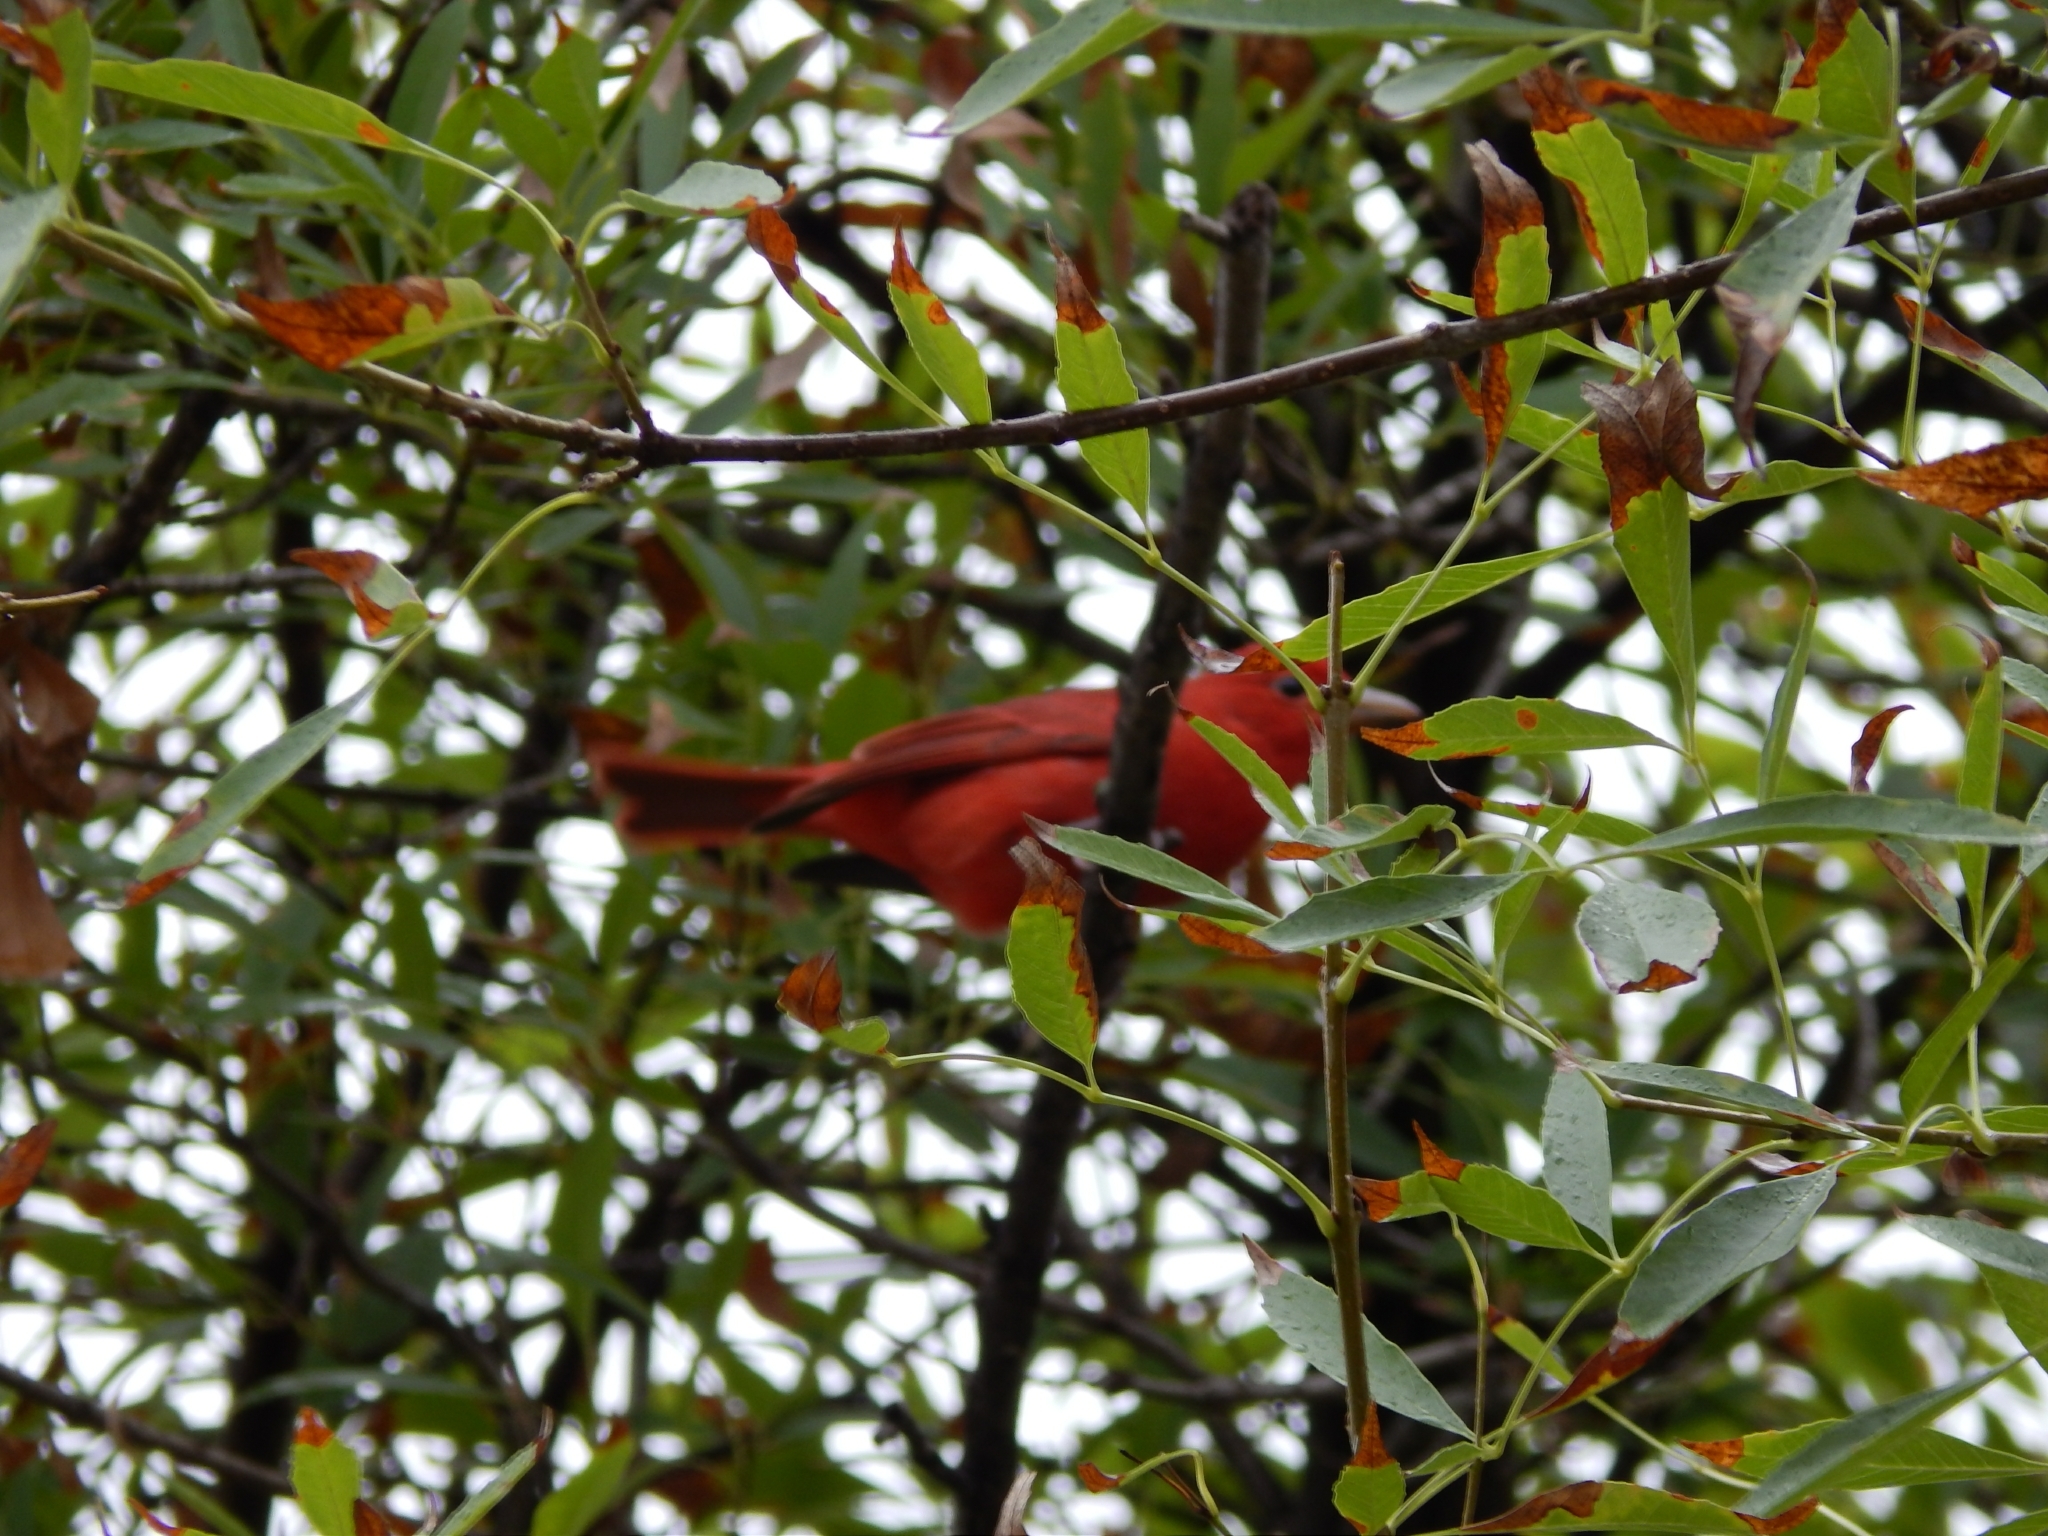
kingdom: Animalia
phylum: Chordata
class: Aves
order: Passeriformes
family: Cardinalidae
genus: Piranga
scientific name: Piranga rubra
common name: Summer tanager
